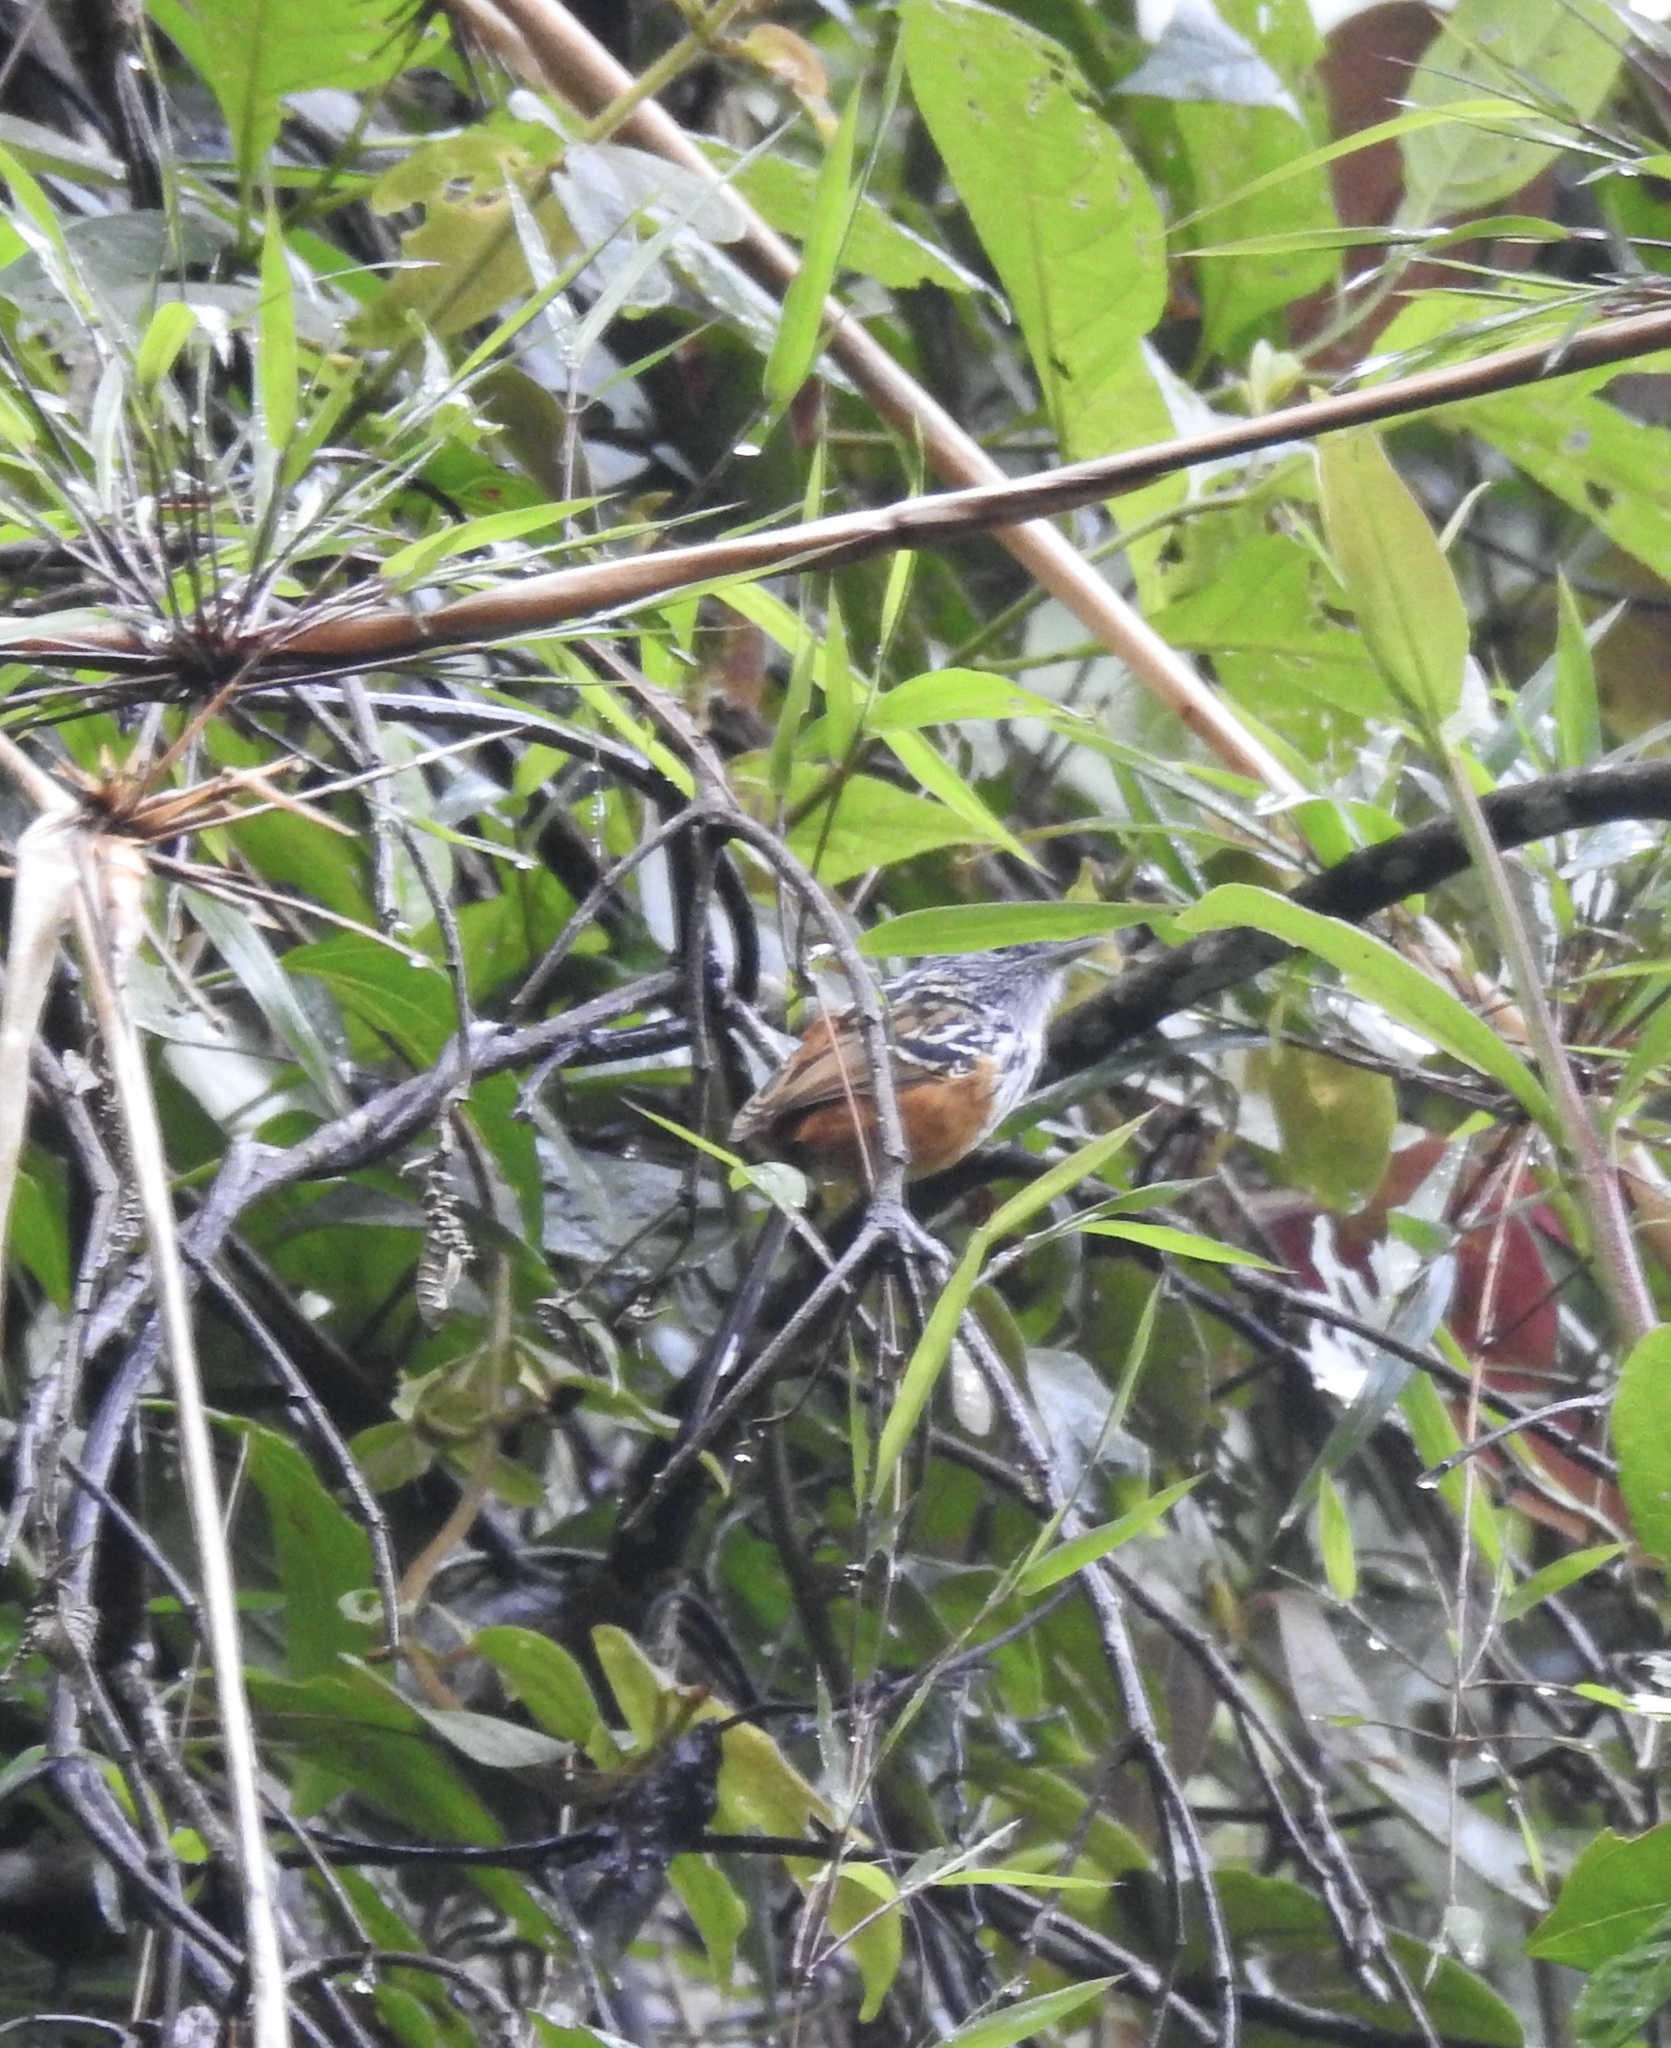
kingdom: Animalia
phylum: Chordata
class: Aves
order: Passeriformes
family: Thamnophilidae
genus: Drymophila
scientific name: Drymophila caudata
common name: Long-tailed antbird
